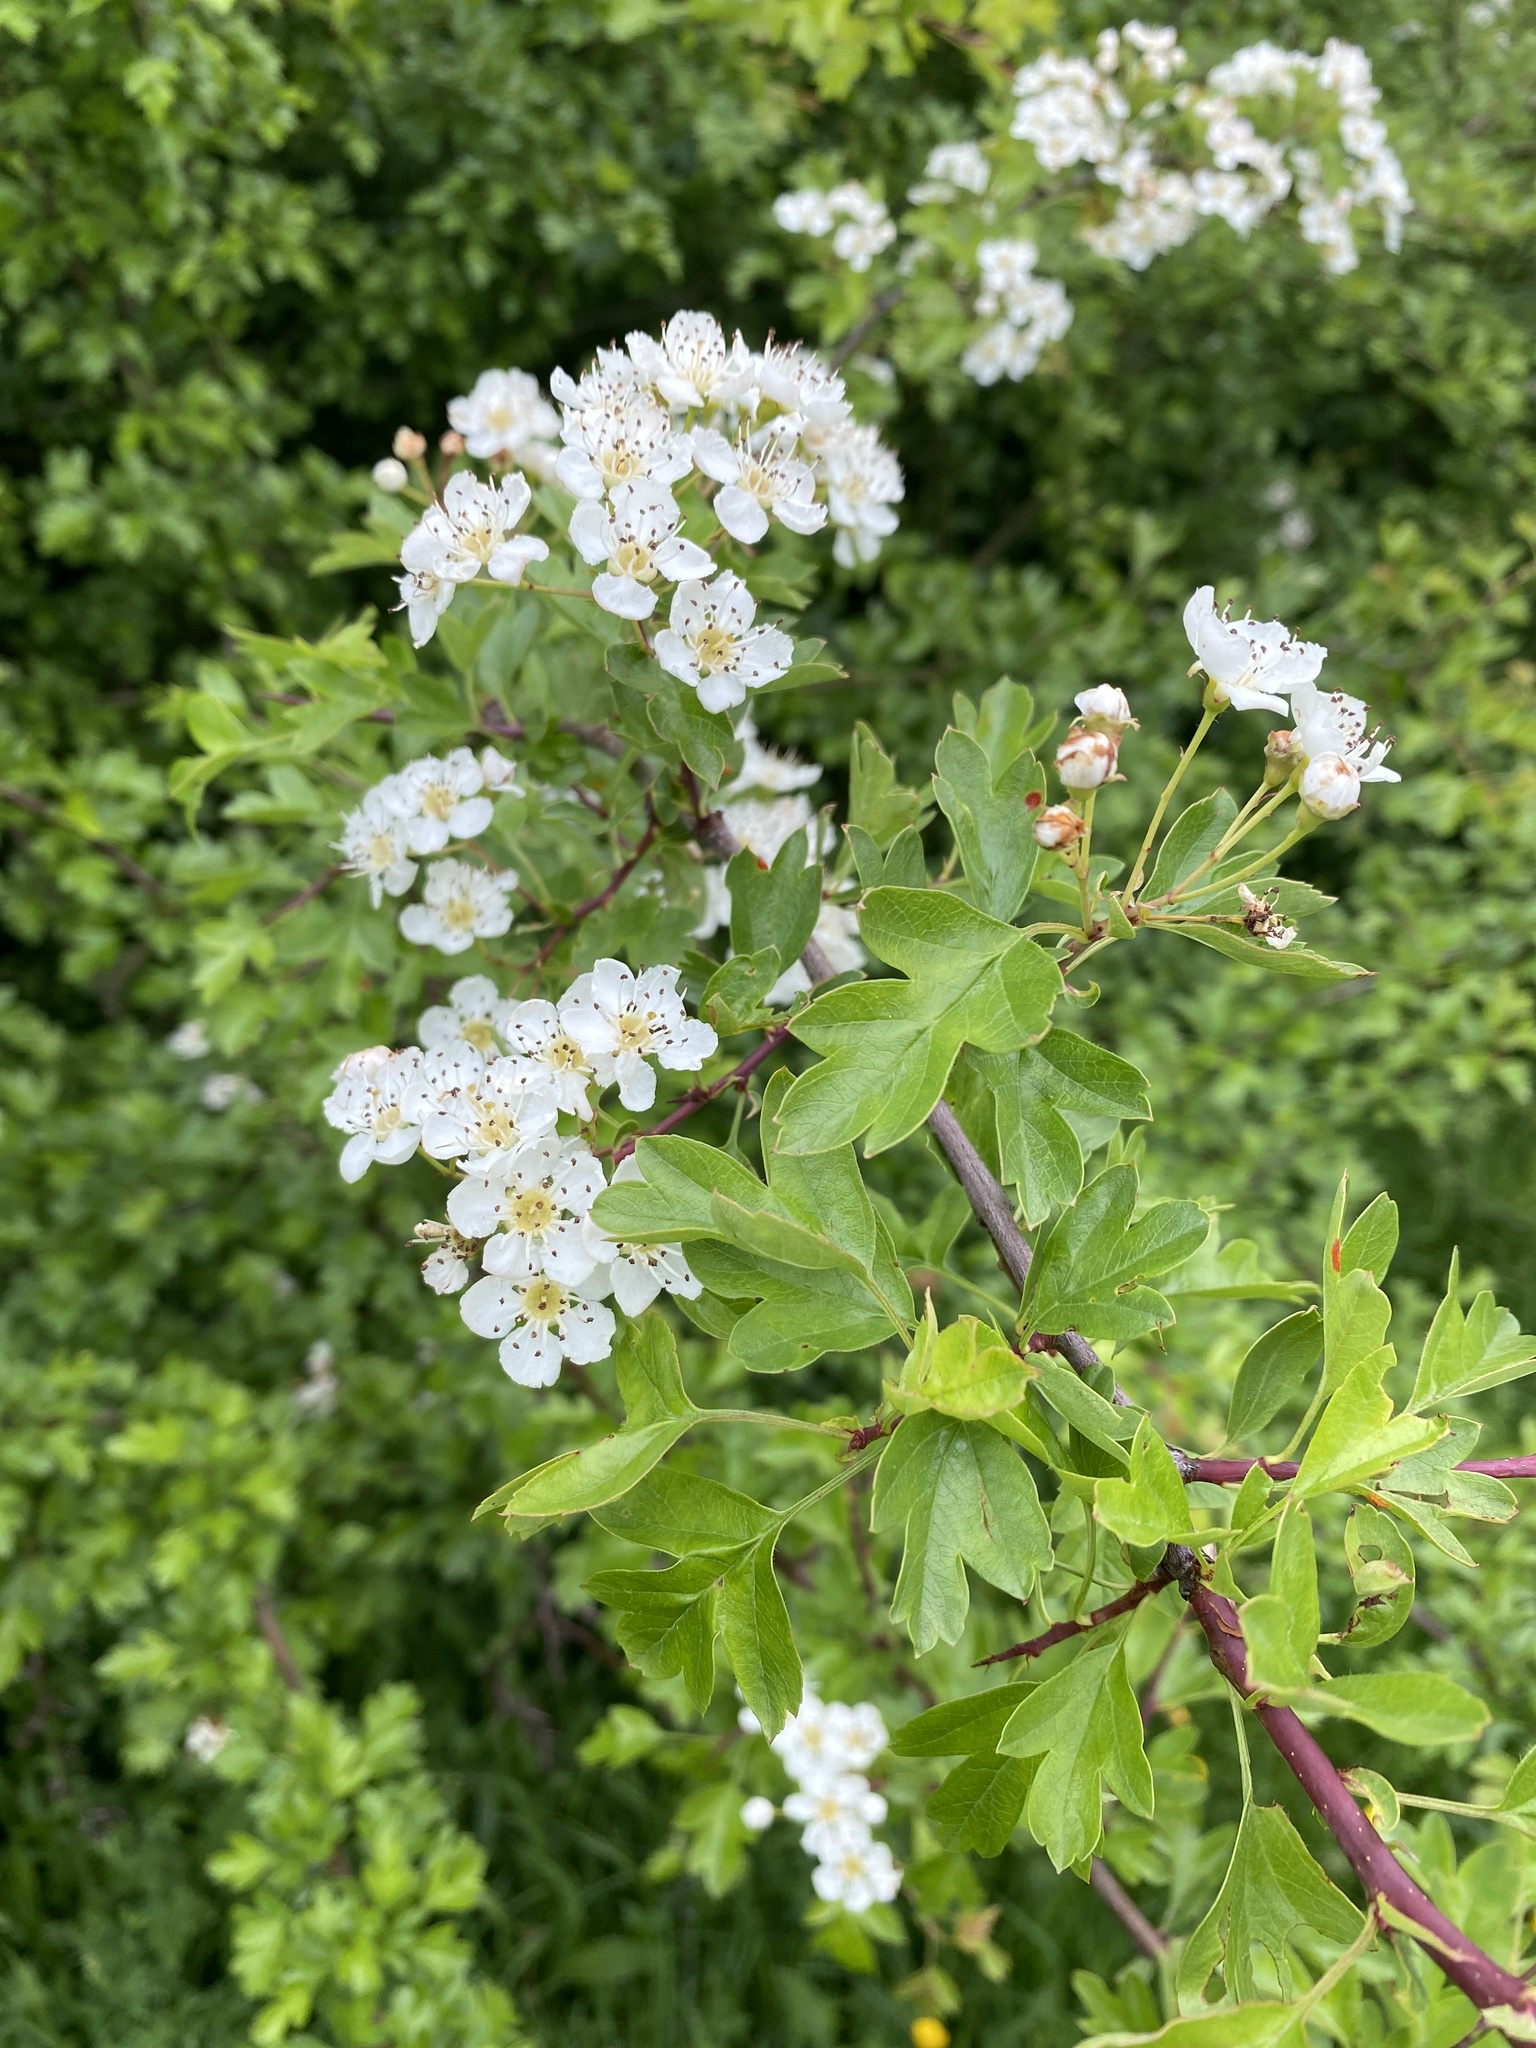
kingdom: Plantae
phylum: Tracheophyta
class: Magnoliopsida
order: Rosales
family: Rosaceae
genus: Crataegus
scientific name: Crataegus monogyna
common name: Hawthorn
